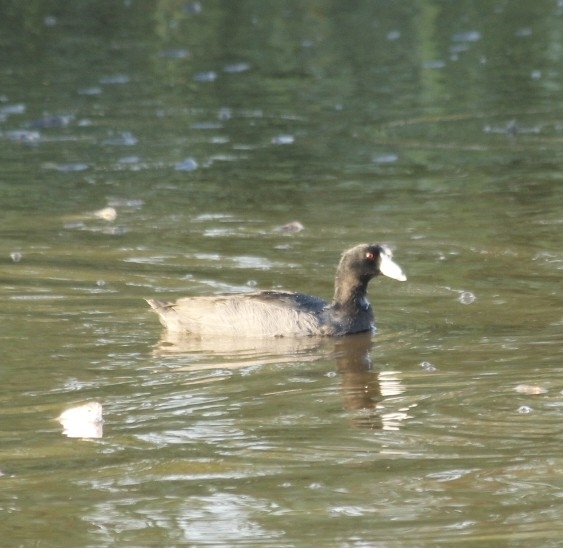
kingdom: Animalia
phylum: Chordata
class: Aves
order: Gruiformes
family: Rallidae
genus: Fulica
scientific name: Fulica americana
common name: American coot
